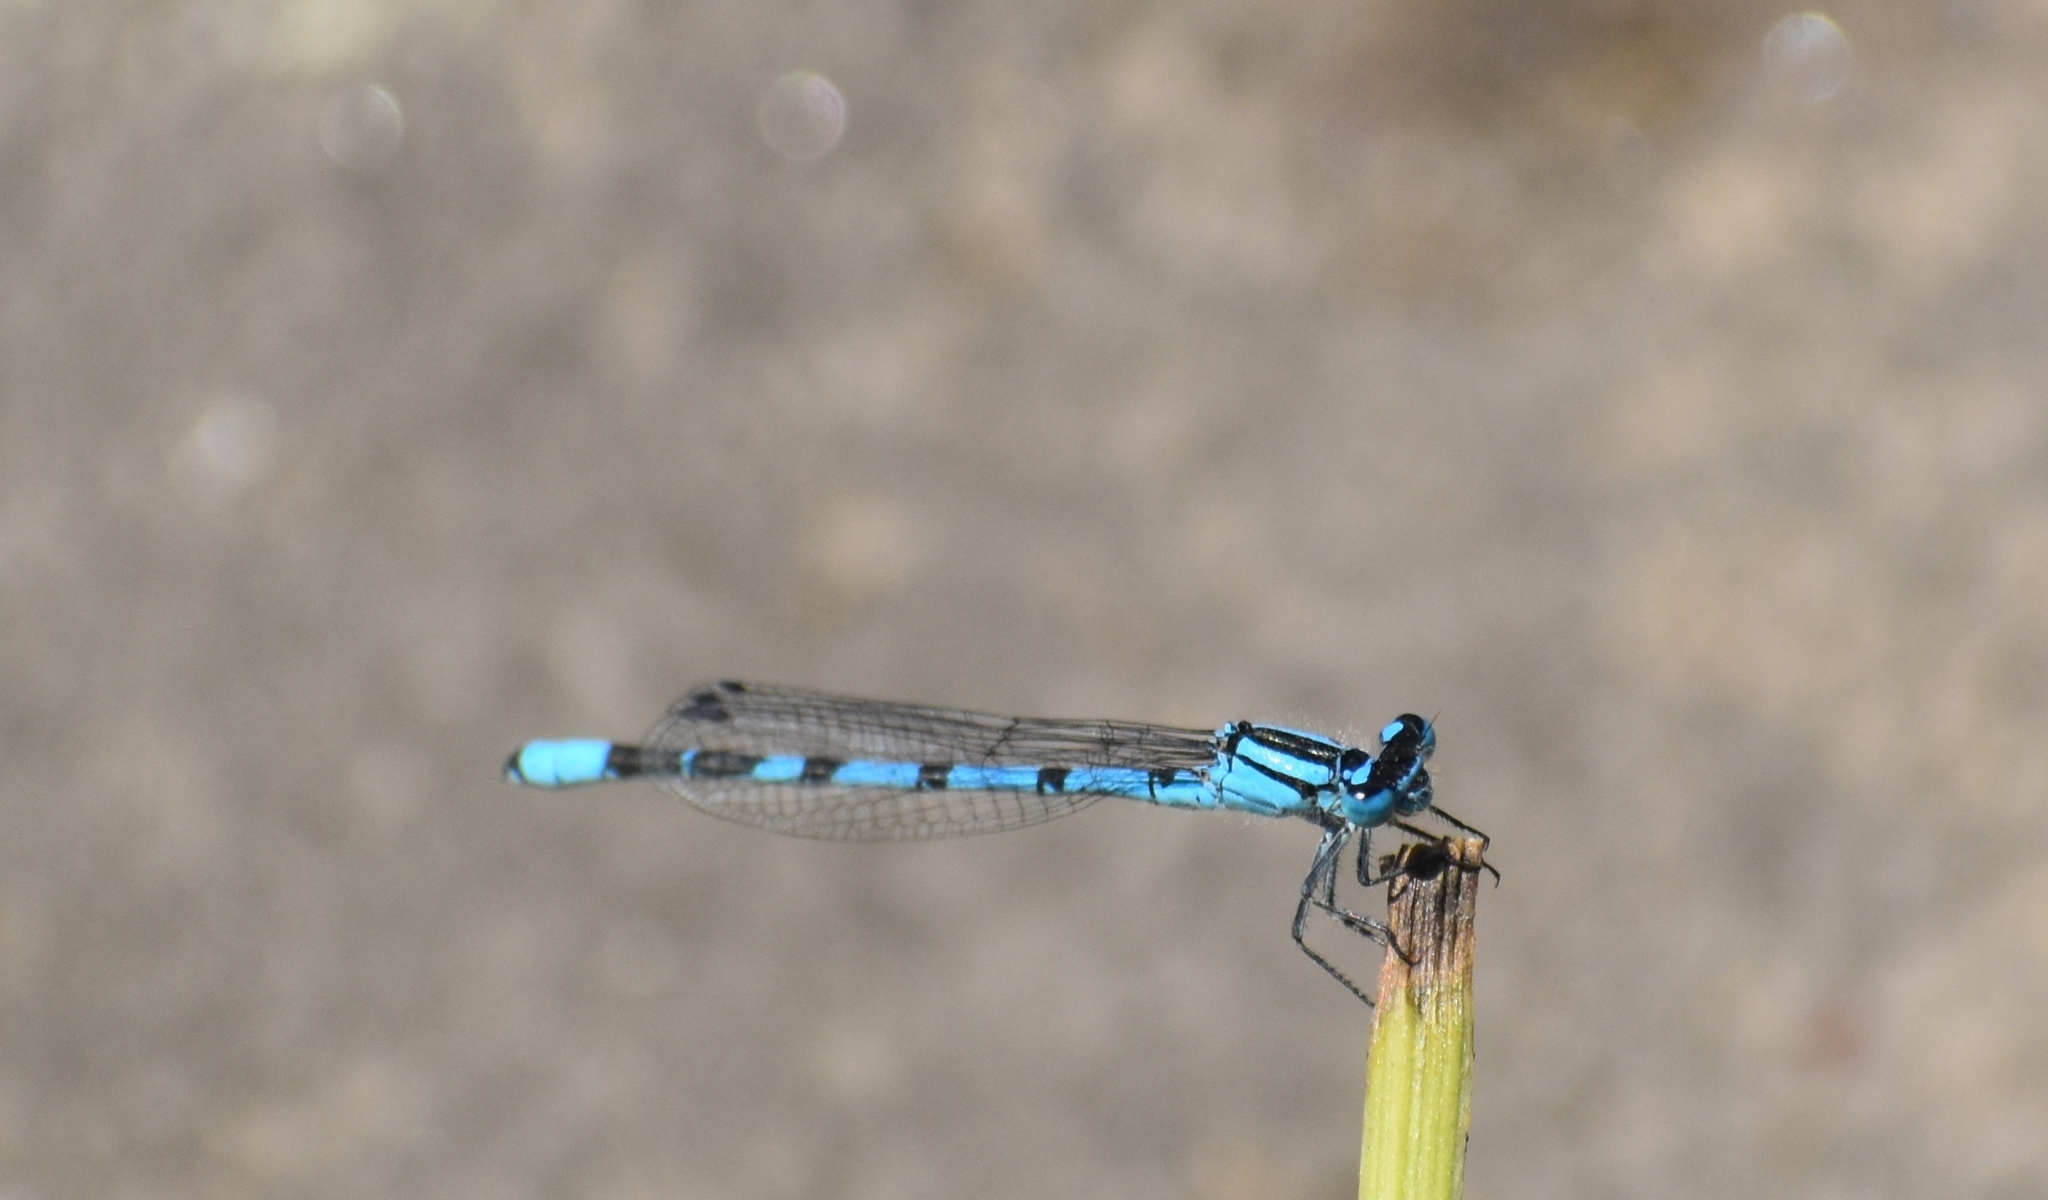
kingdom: Animalia
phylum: Arthropoda
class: Insecta
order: Odonata
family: Coenagrionidae
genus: Enallagma
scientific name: Enallagma cyathigerum
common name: Common blue damselfly
